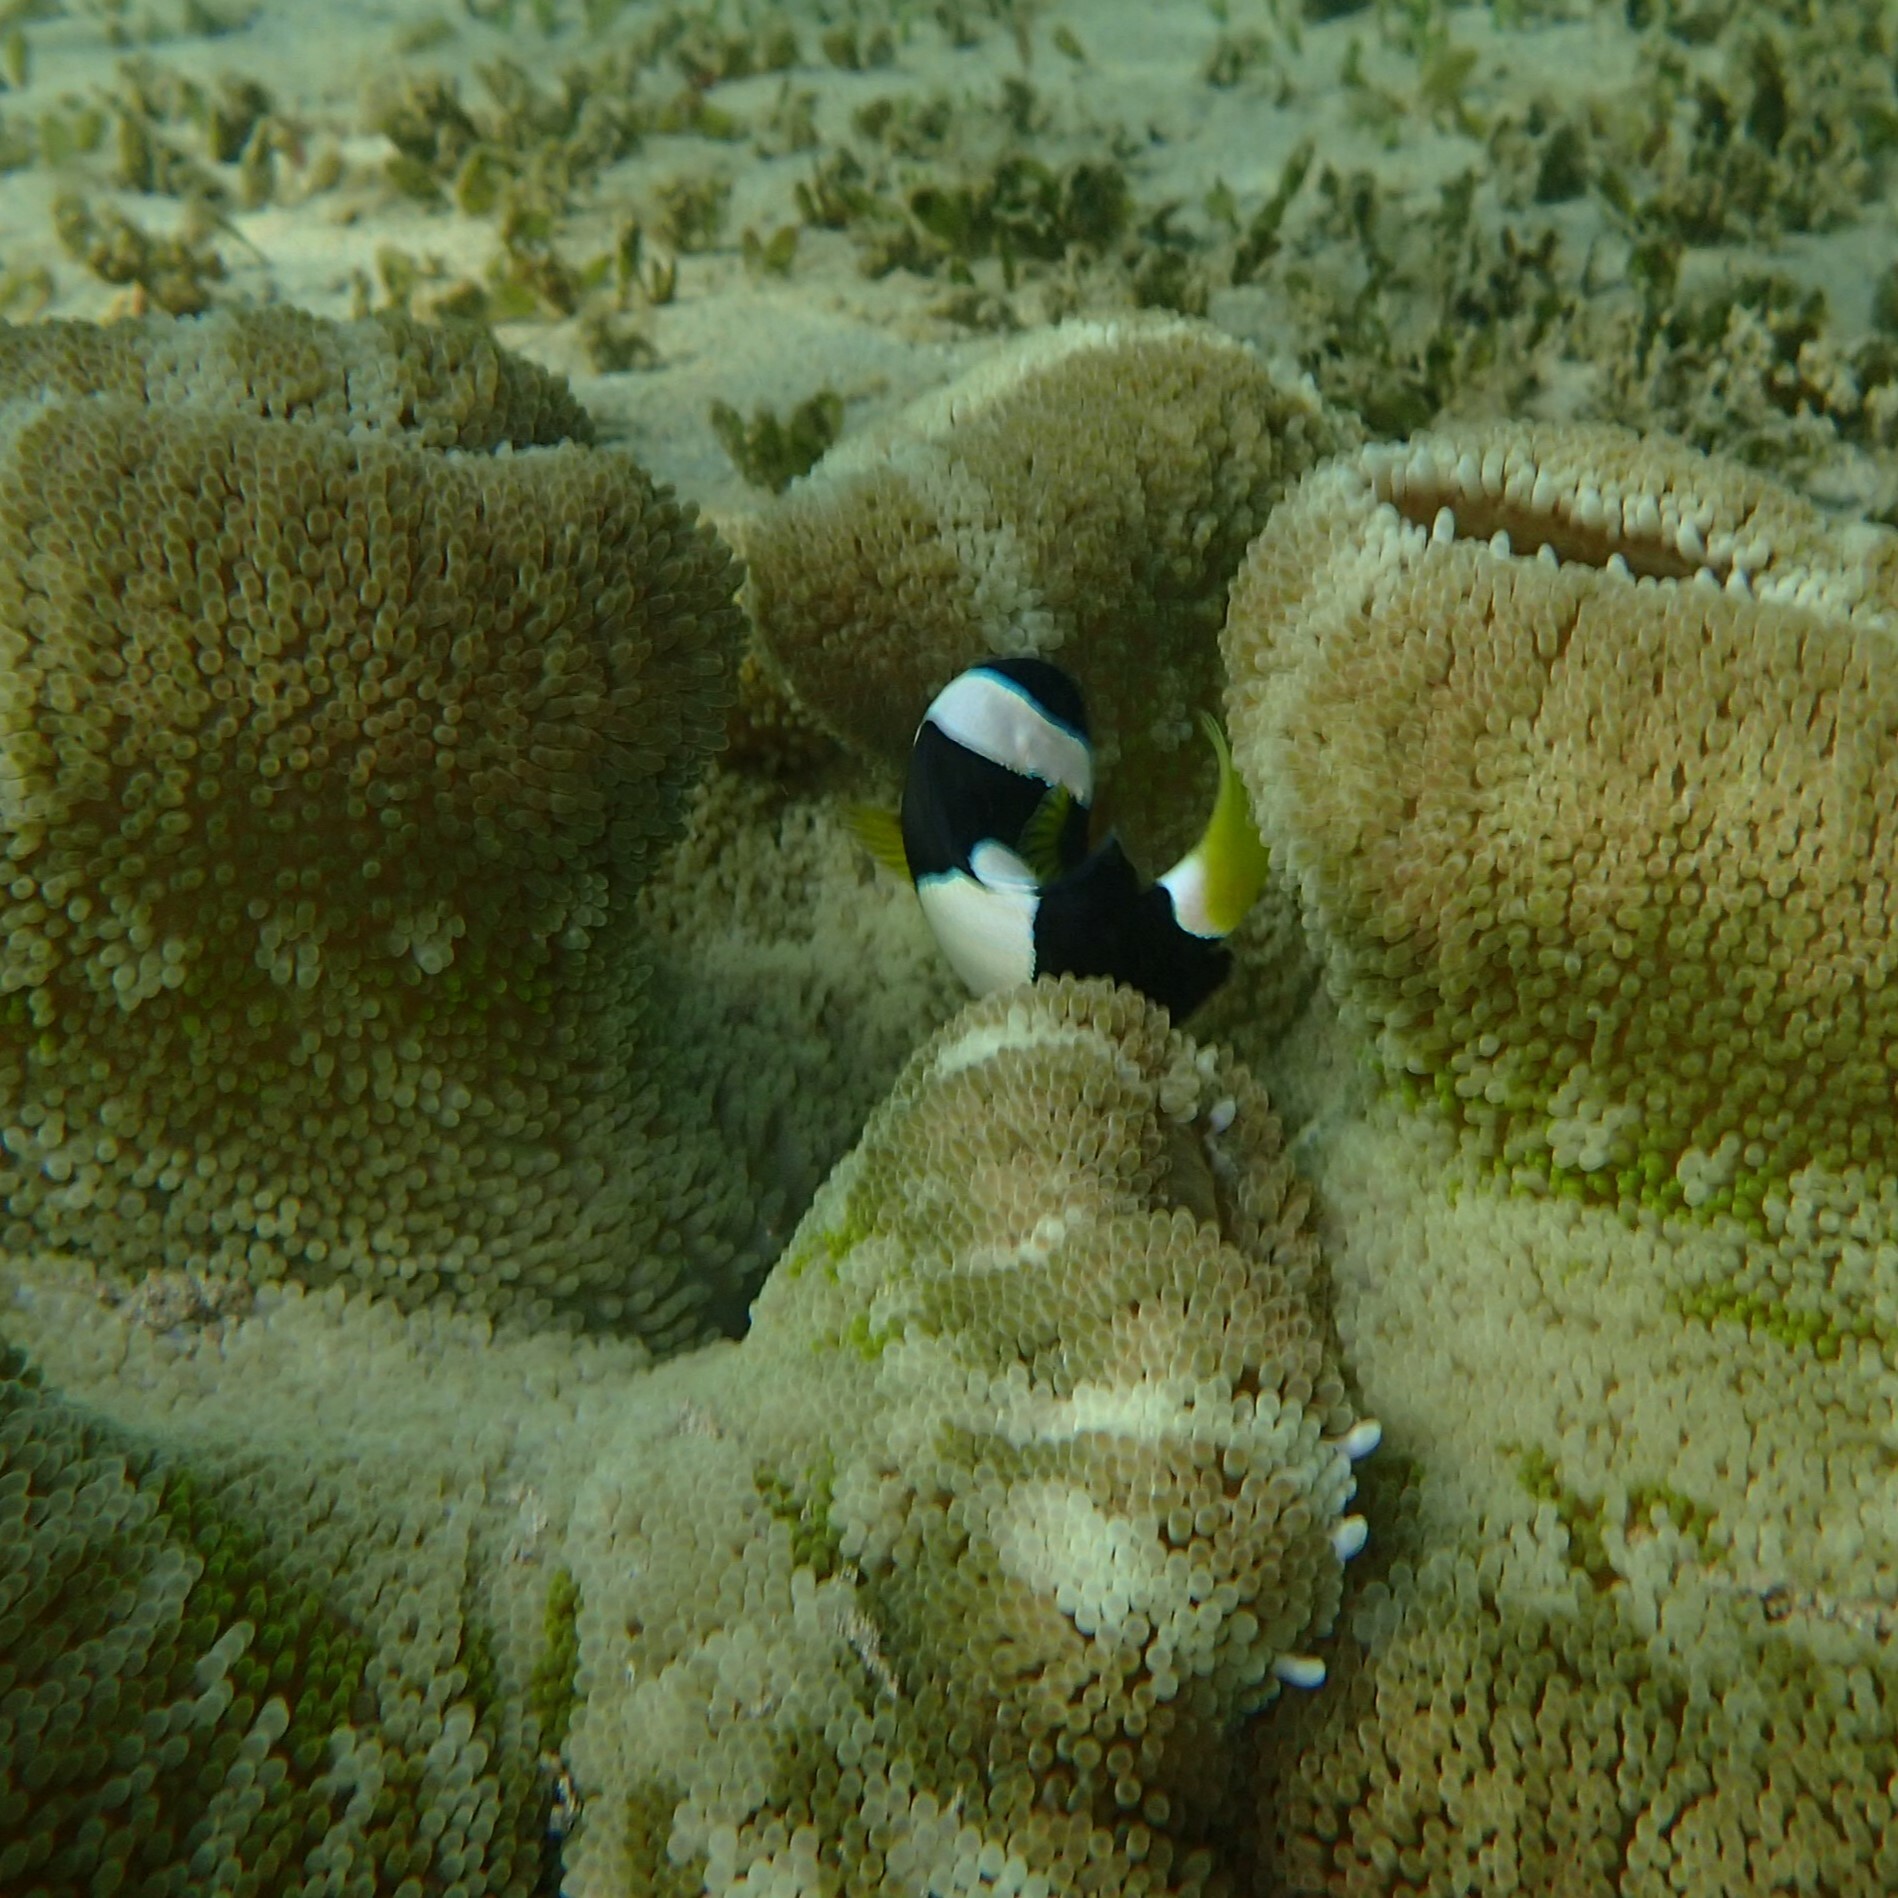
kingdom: Animalia
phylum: Chordata
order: Perciformes
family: Pomacentridae
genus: Amphiprion
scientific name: Amphiprion clarkii
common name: Clark's anemonefish
